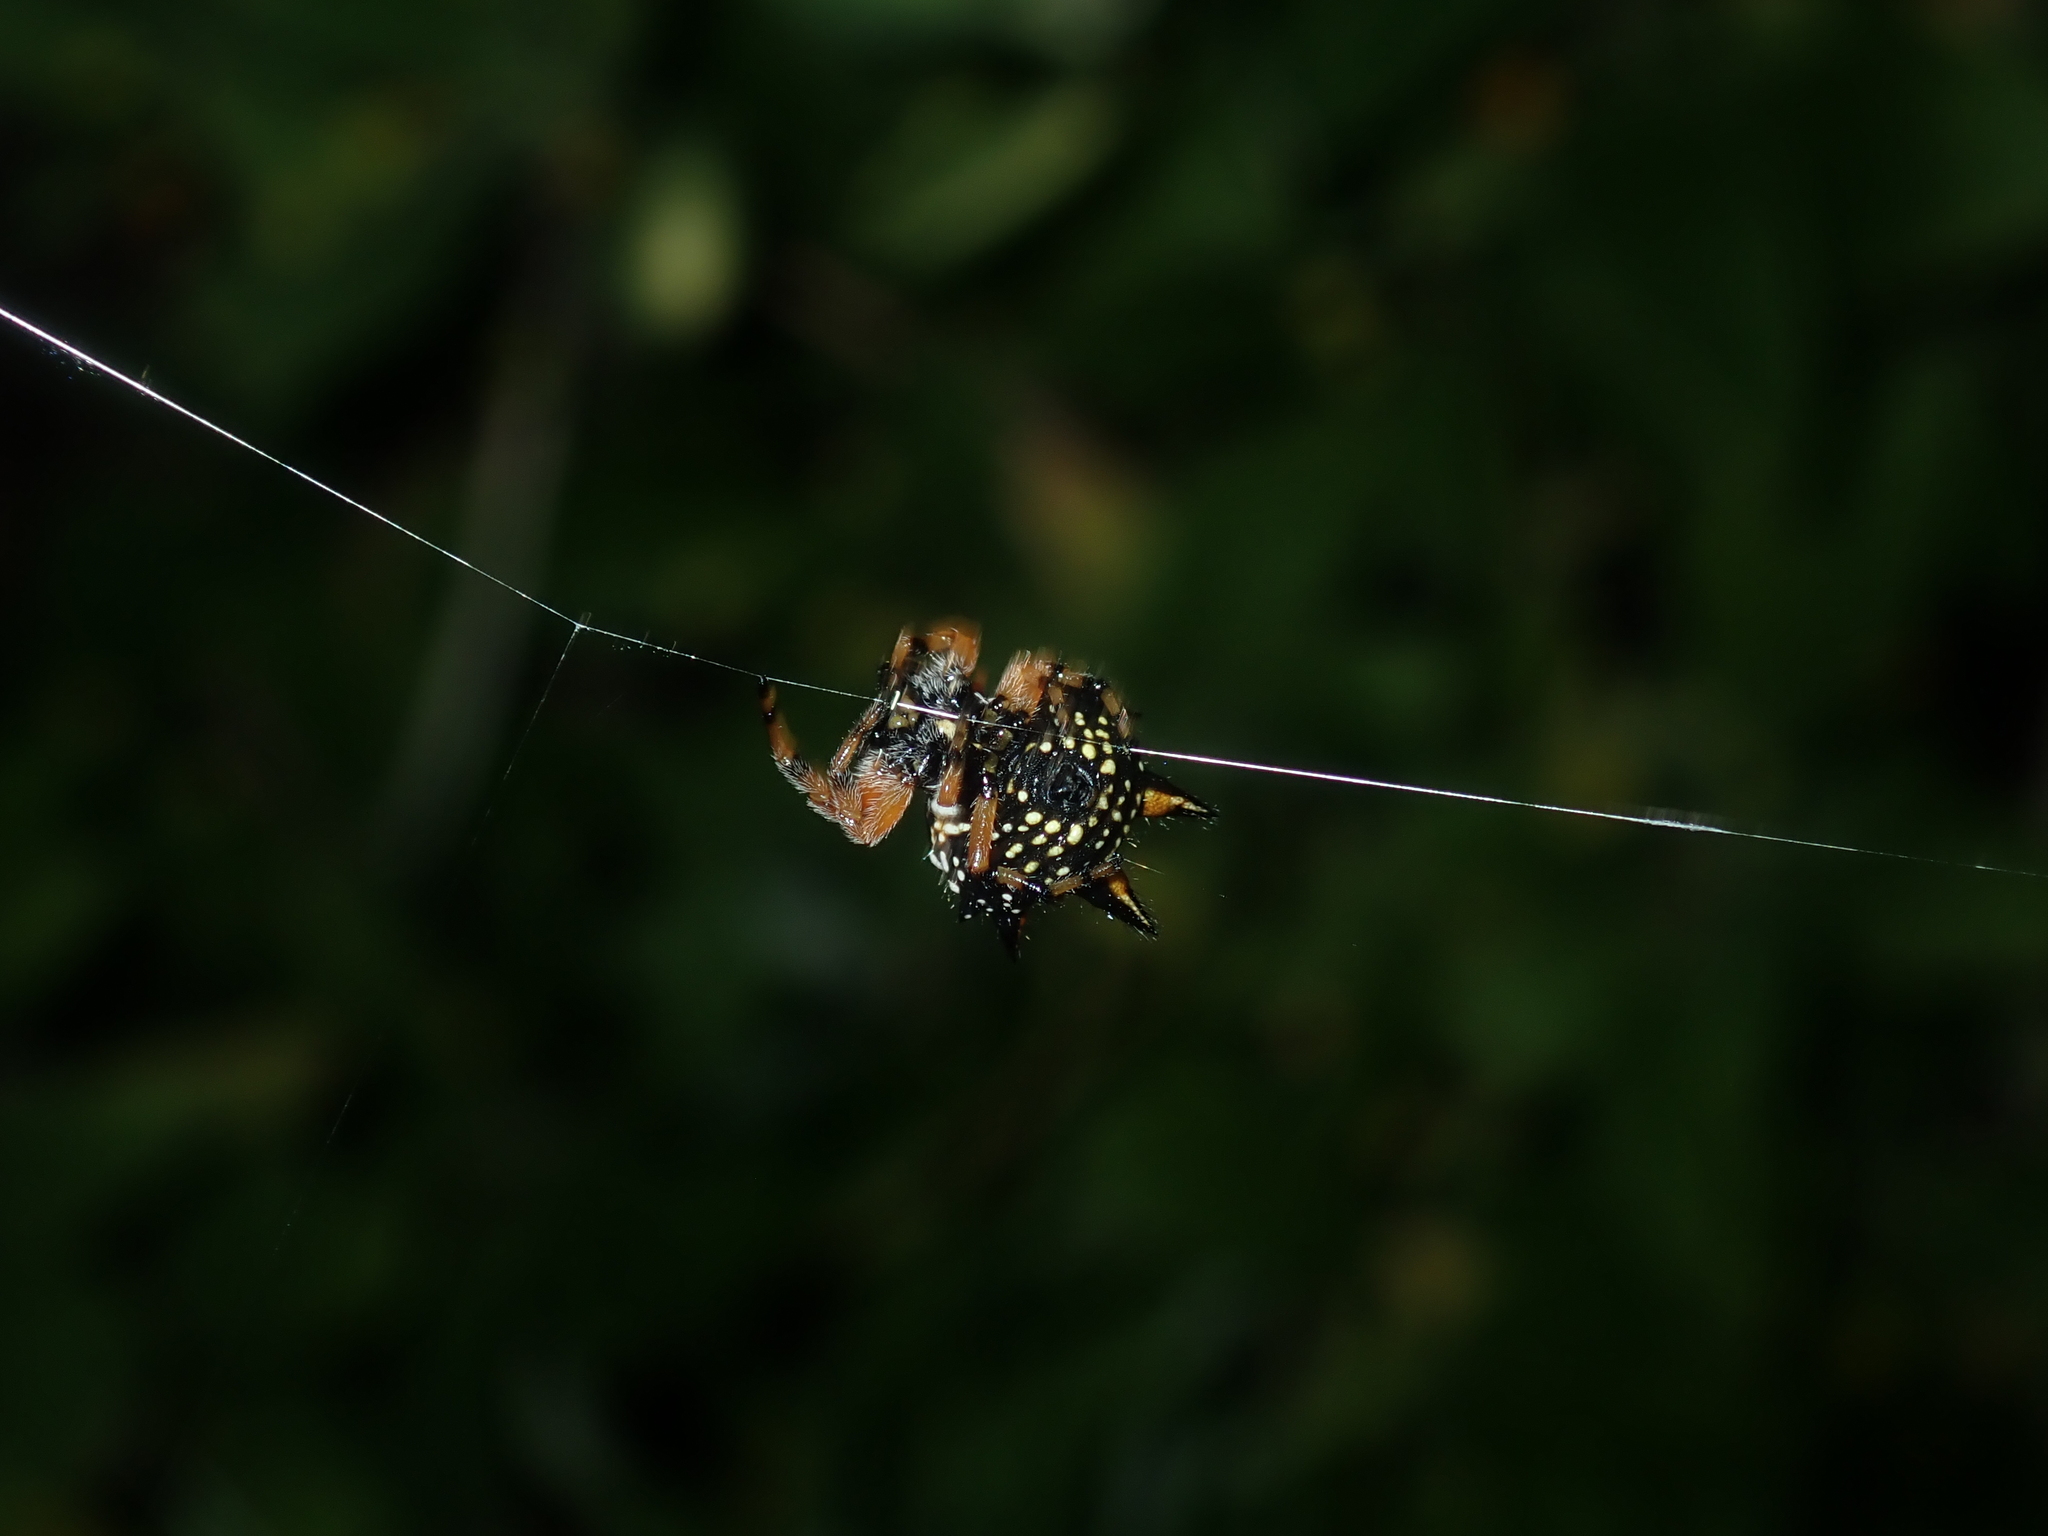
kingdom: Animalia
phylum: Arthropoda
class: Arachnida
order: Araneae
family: Araneidae
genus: Austracantha
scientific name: Austracantha minax
